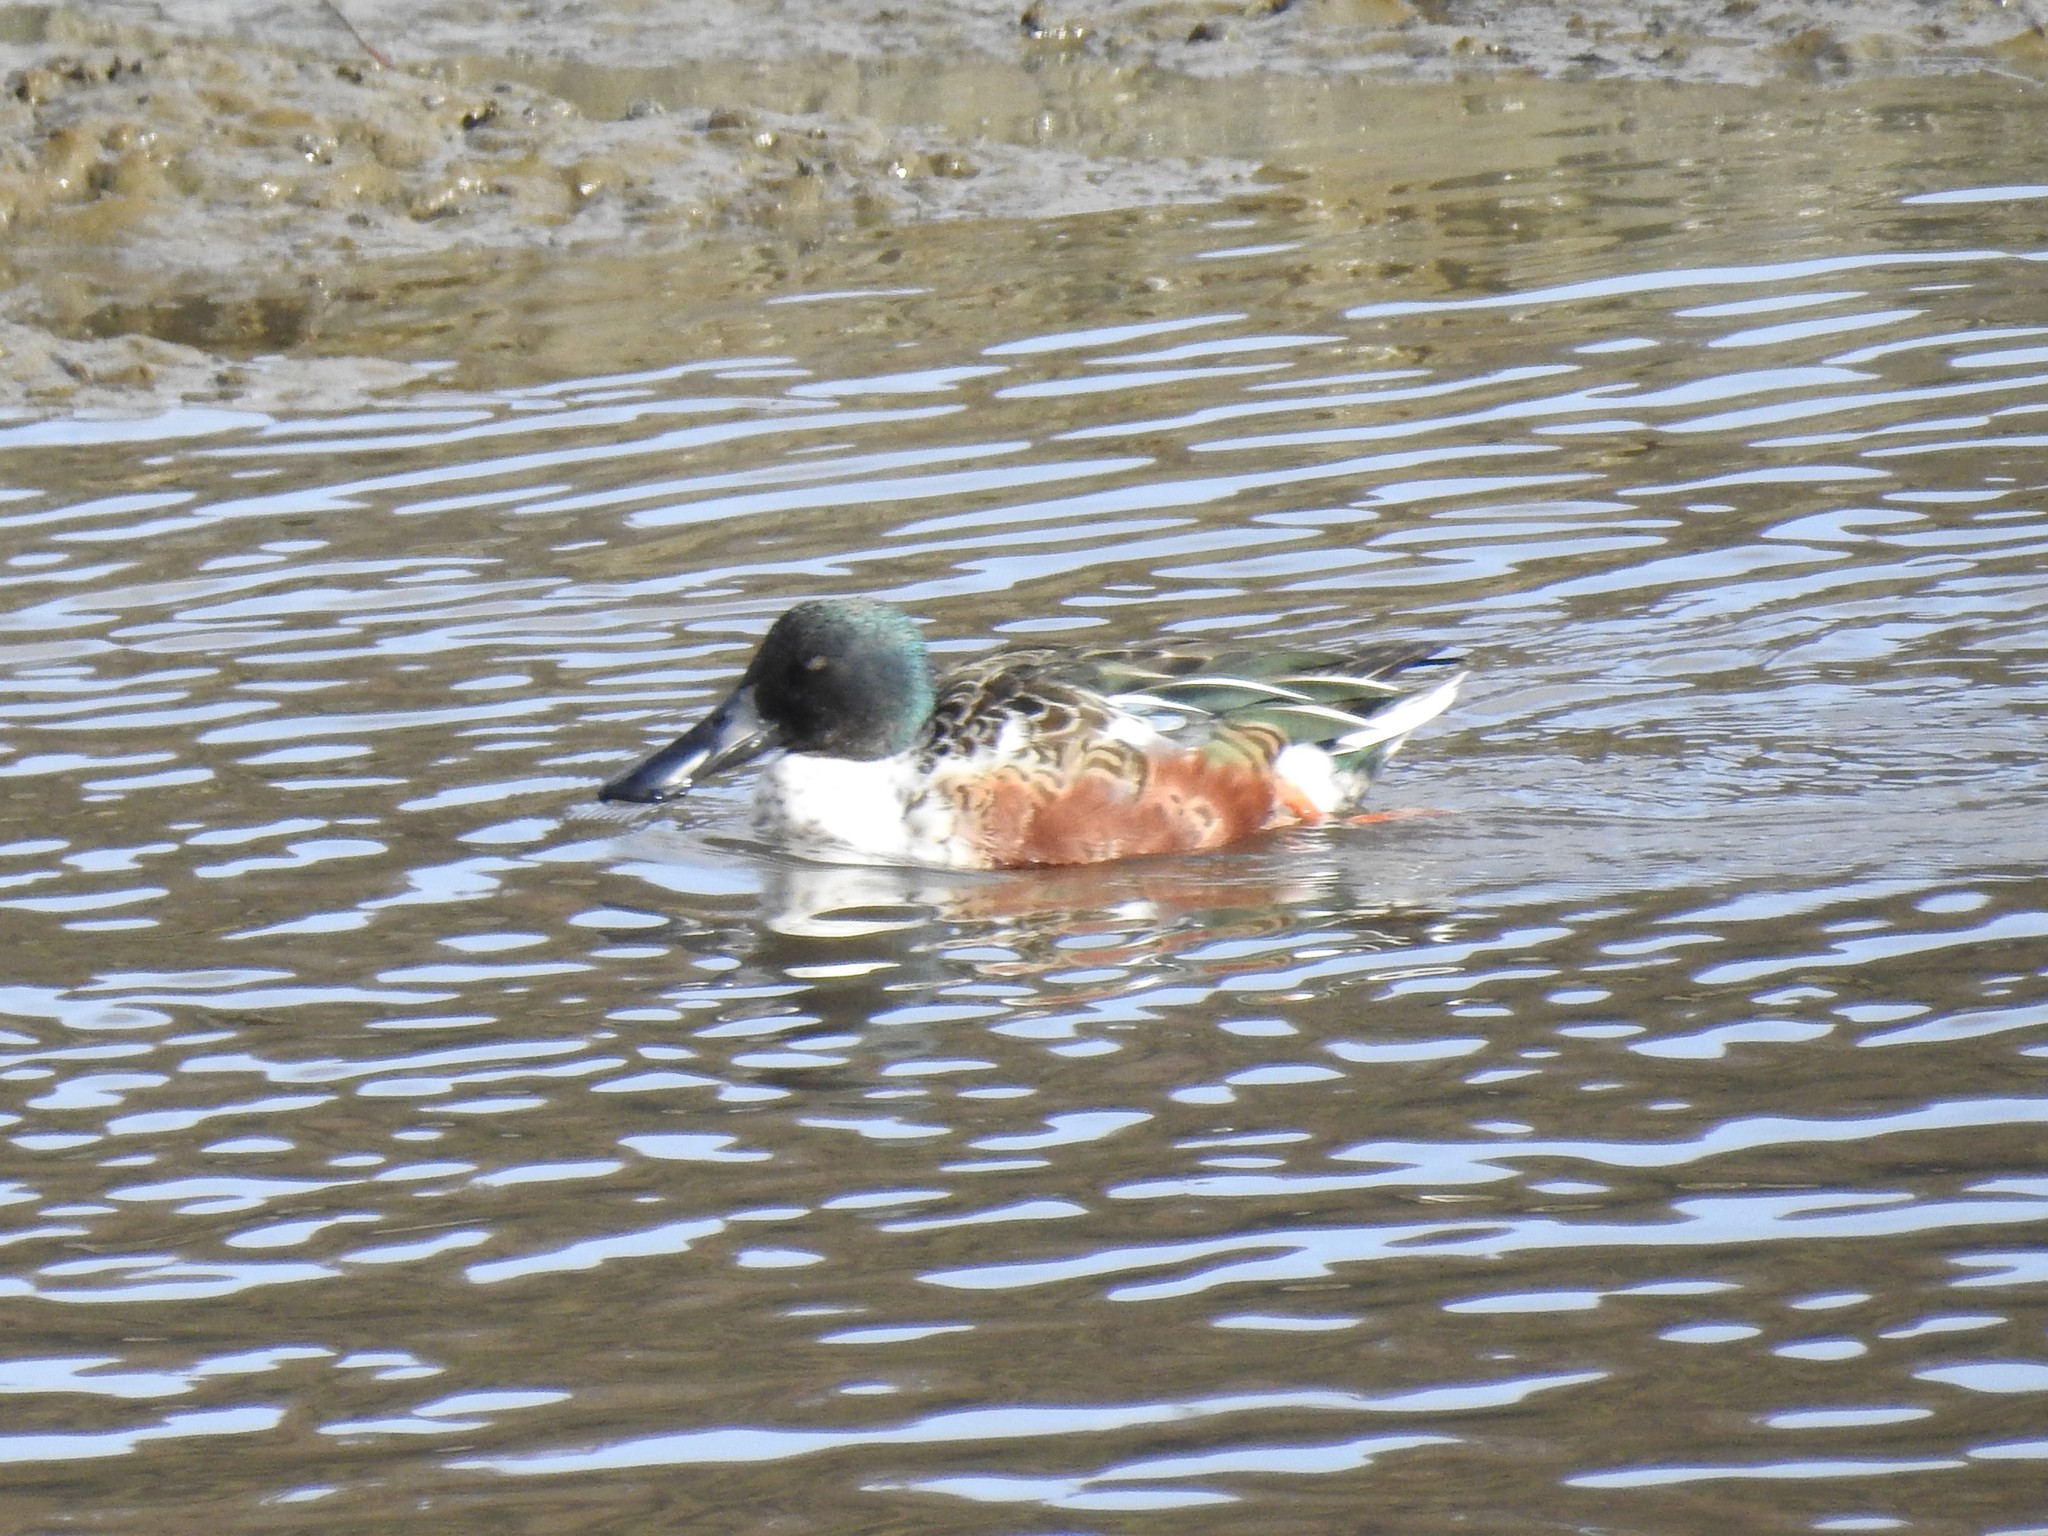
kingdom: Animalia
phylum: Chordata
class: Aves
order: Anseriformes
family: Anatidae
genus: Spatula
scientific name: Spatula clypeata
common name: Northern shoveler
